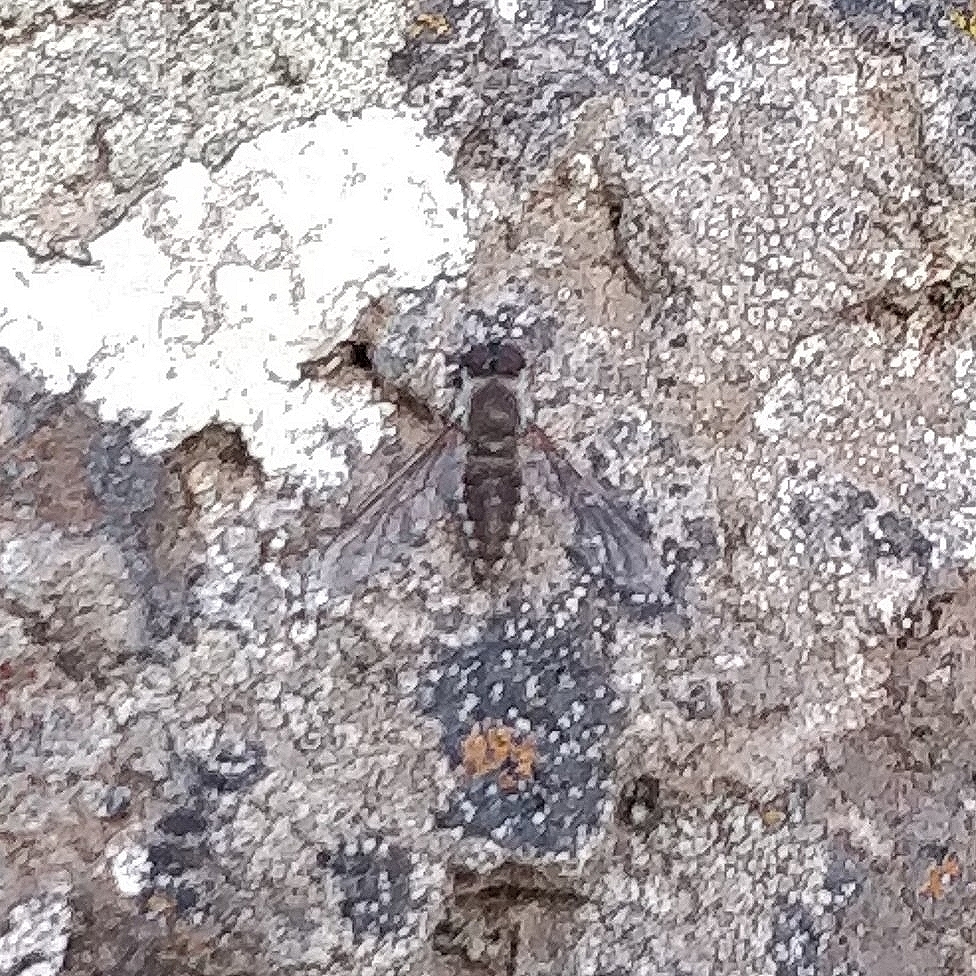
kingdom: Animalia
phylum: Arthropoda
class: Insecta
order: Diptera
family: Bombyliidae
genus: Petrorossia
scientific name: Petrorossia guanchorum
